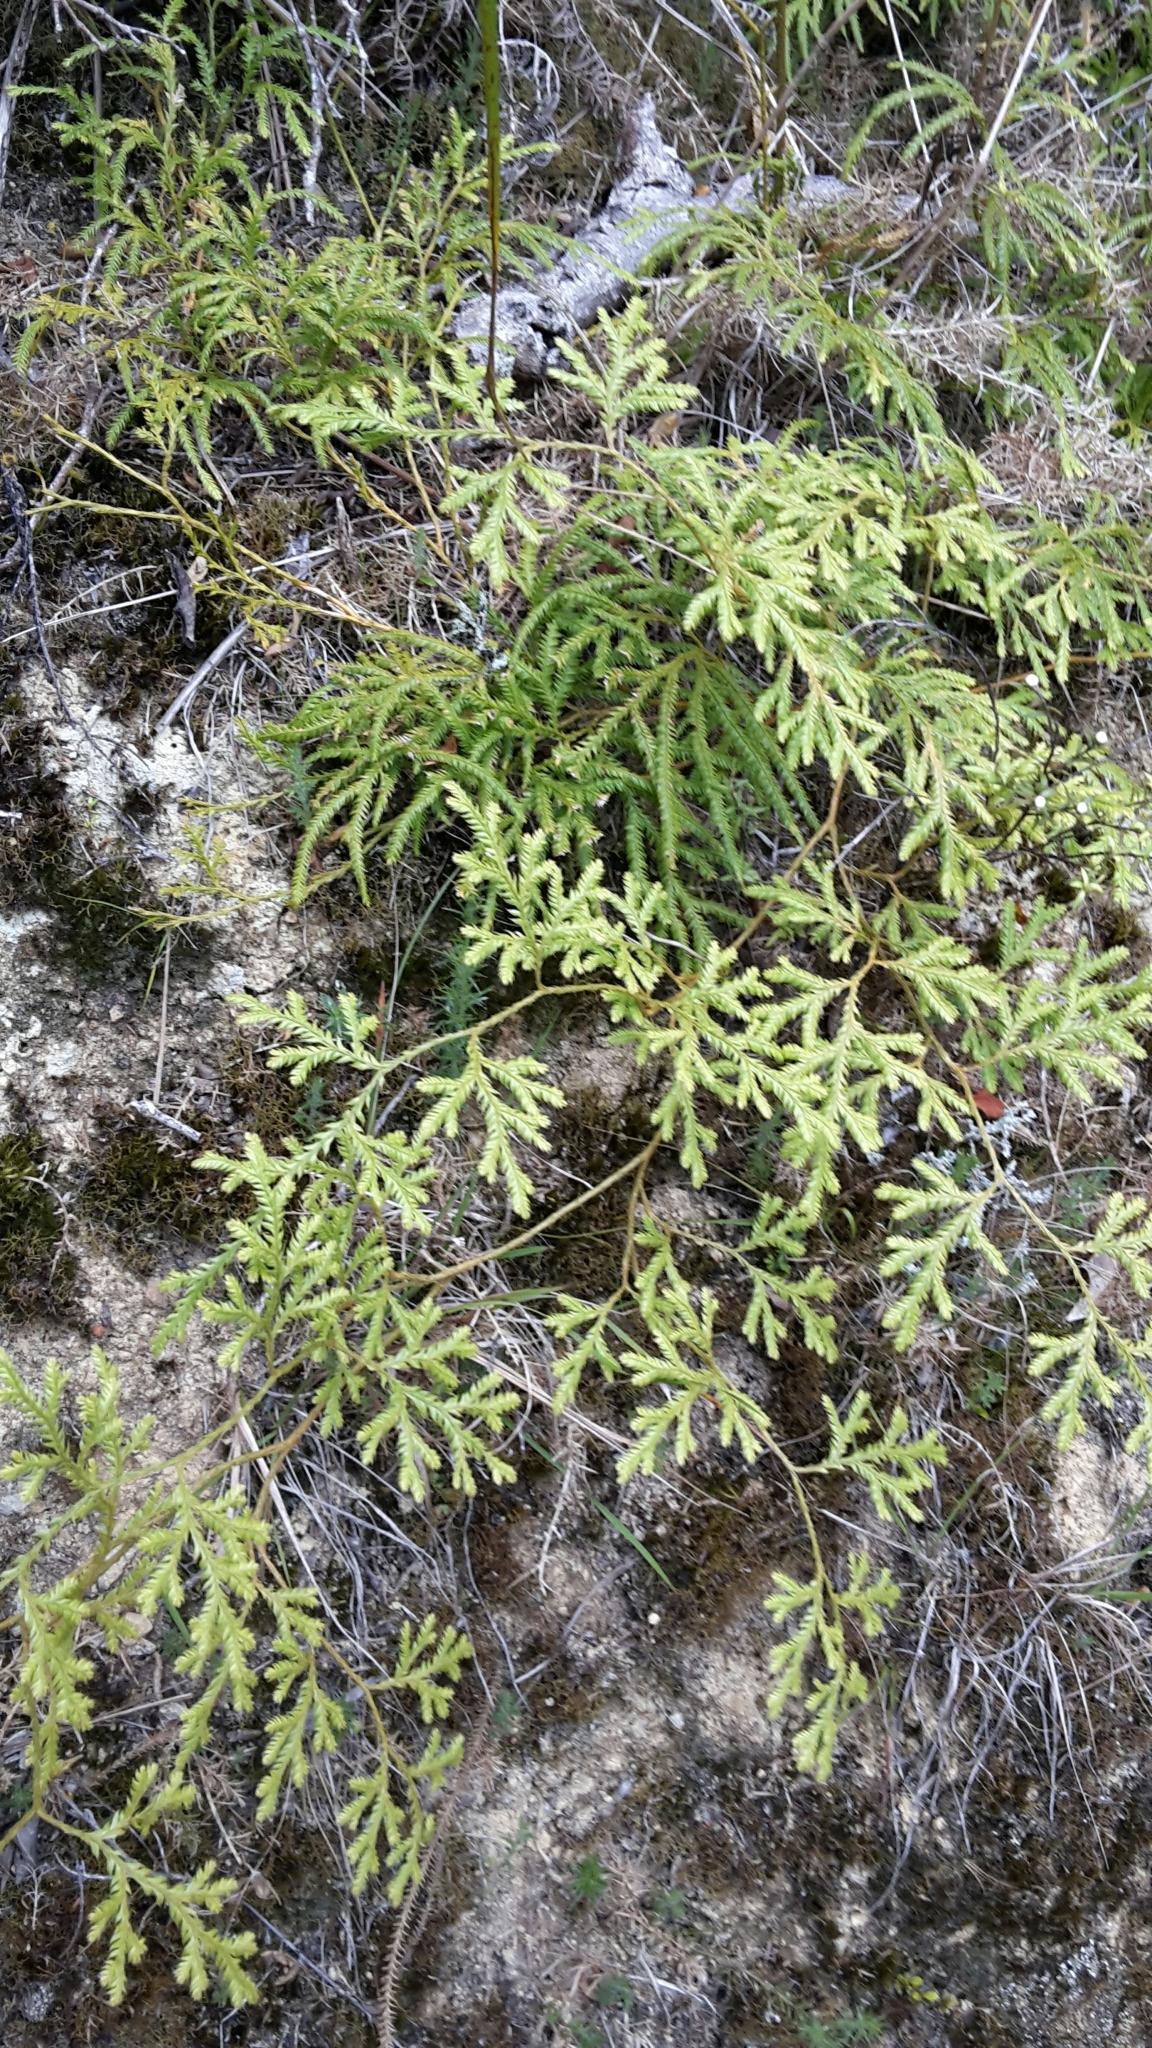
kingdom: Plantae
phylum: Tracheophyta
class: Lycopodiopsida
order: Lycopodiales
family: Lycopodiaceae
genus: Lycopodium
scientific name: Lycopodium volubile
